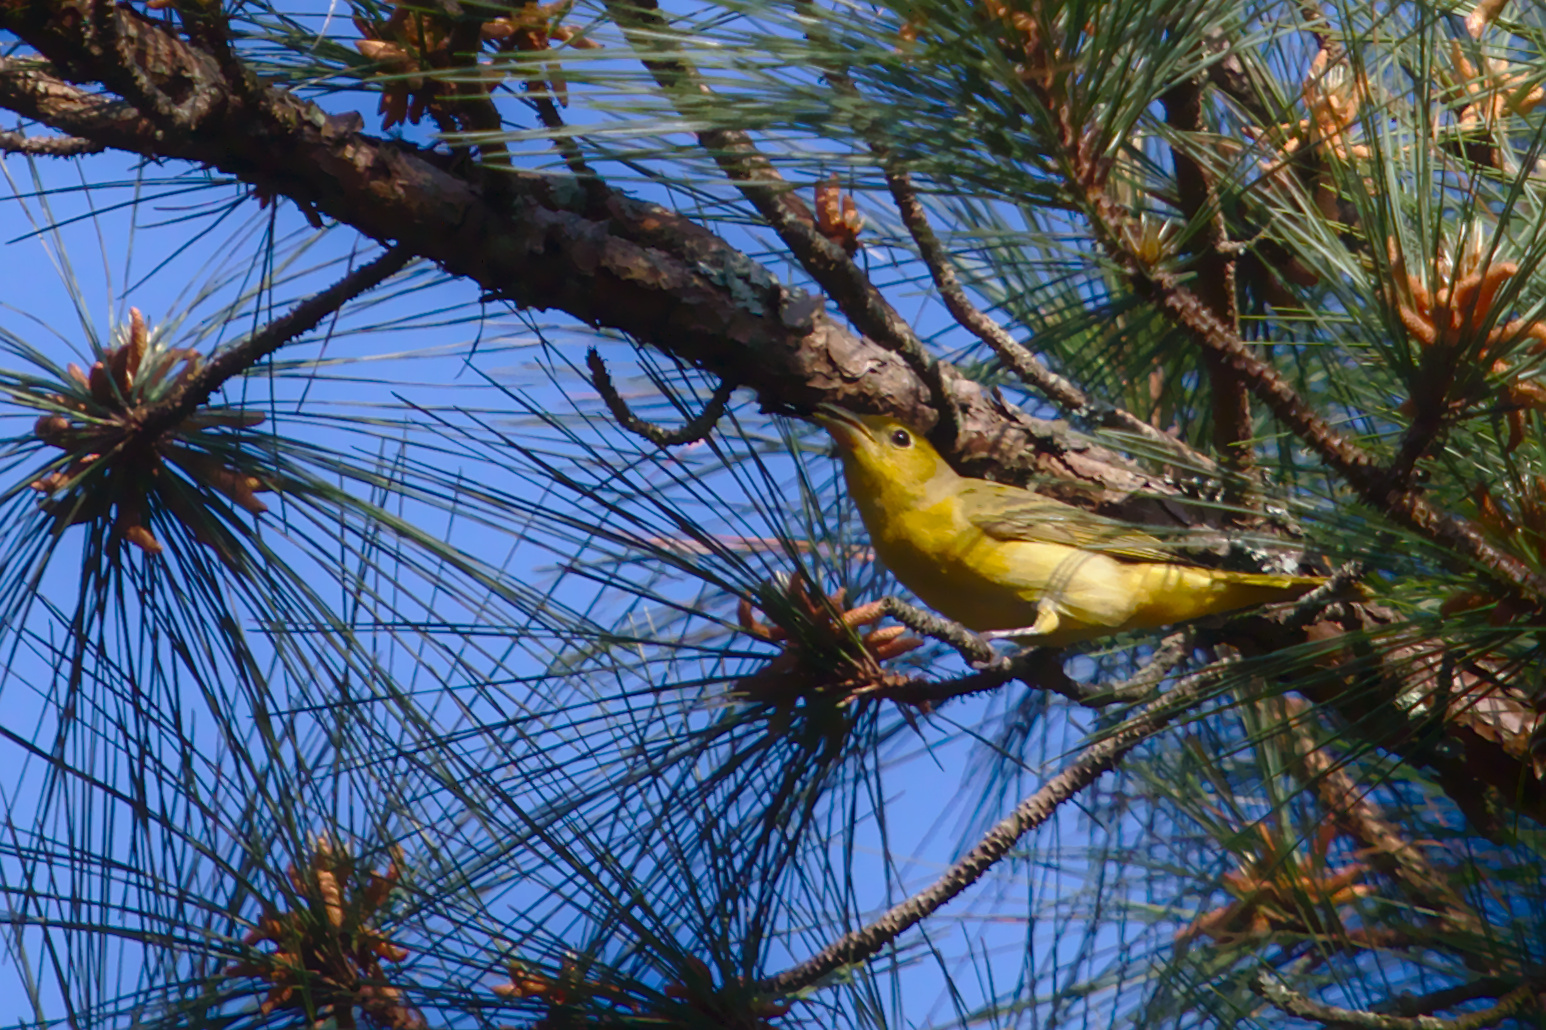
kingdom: Animalia
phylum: Chordata
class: Aves
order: Passeriformes
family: Cardinalidae
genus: Piranga
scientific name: Piranga rubra
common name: Summer tanager
